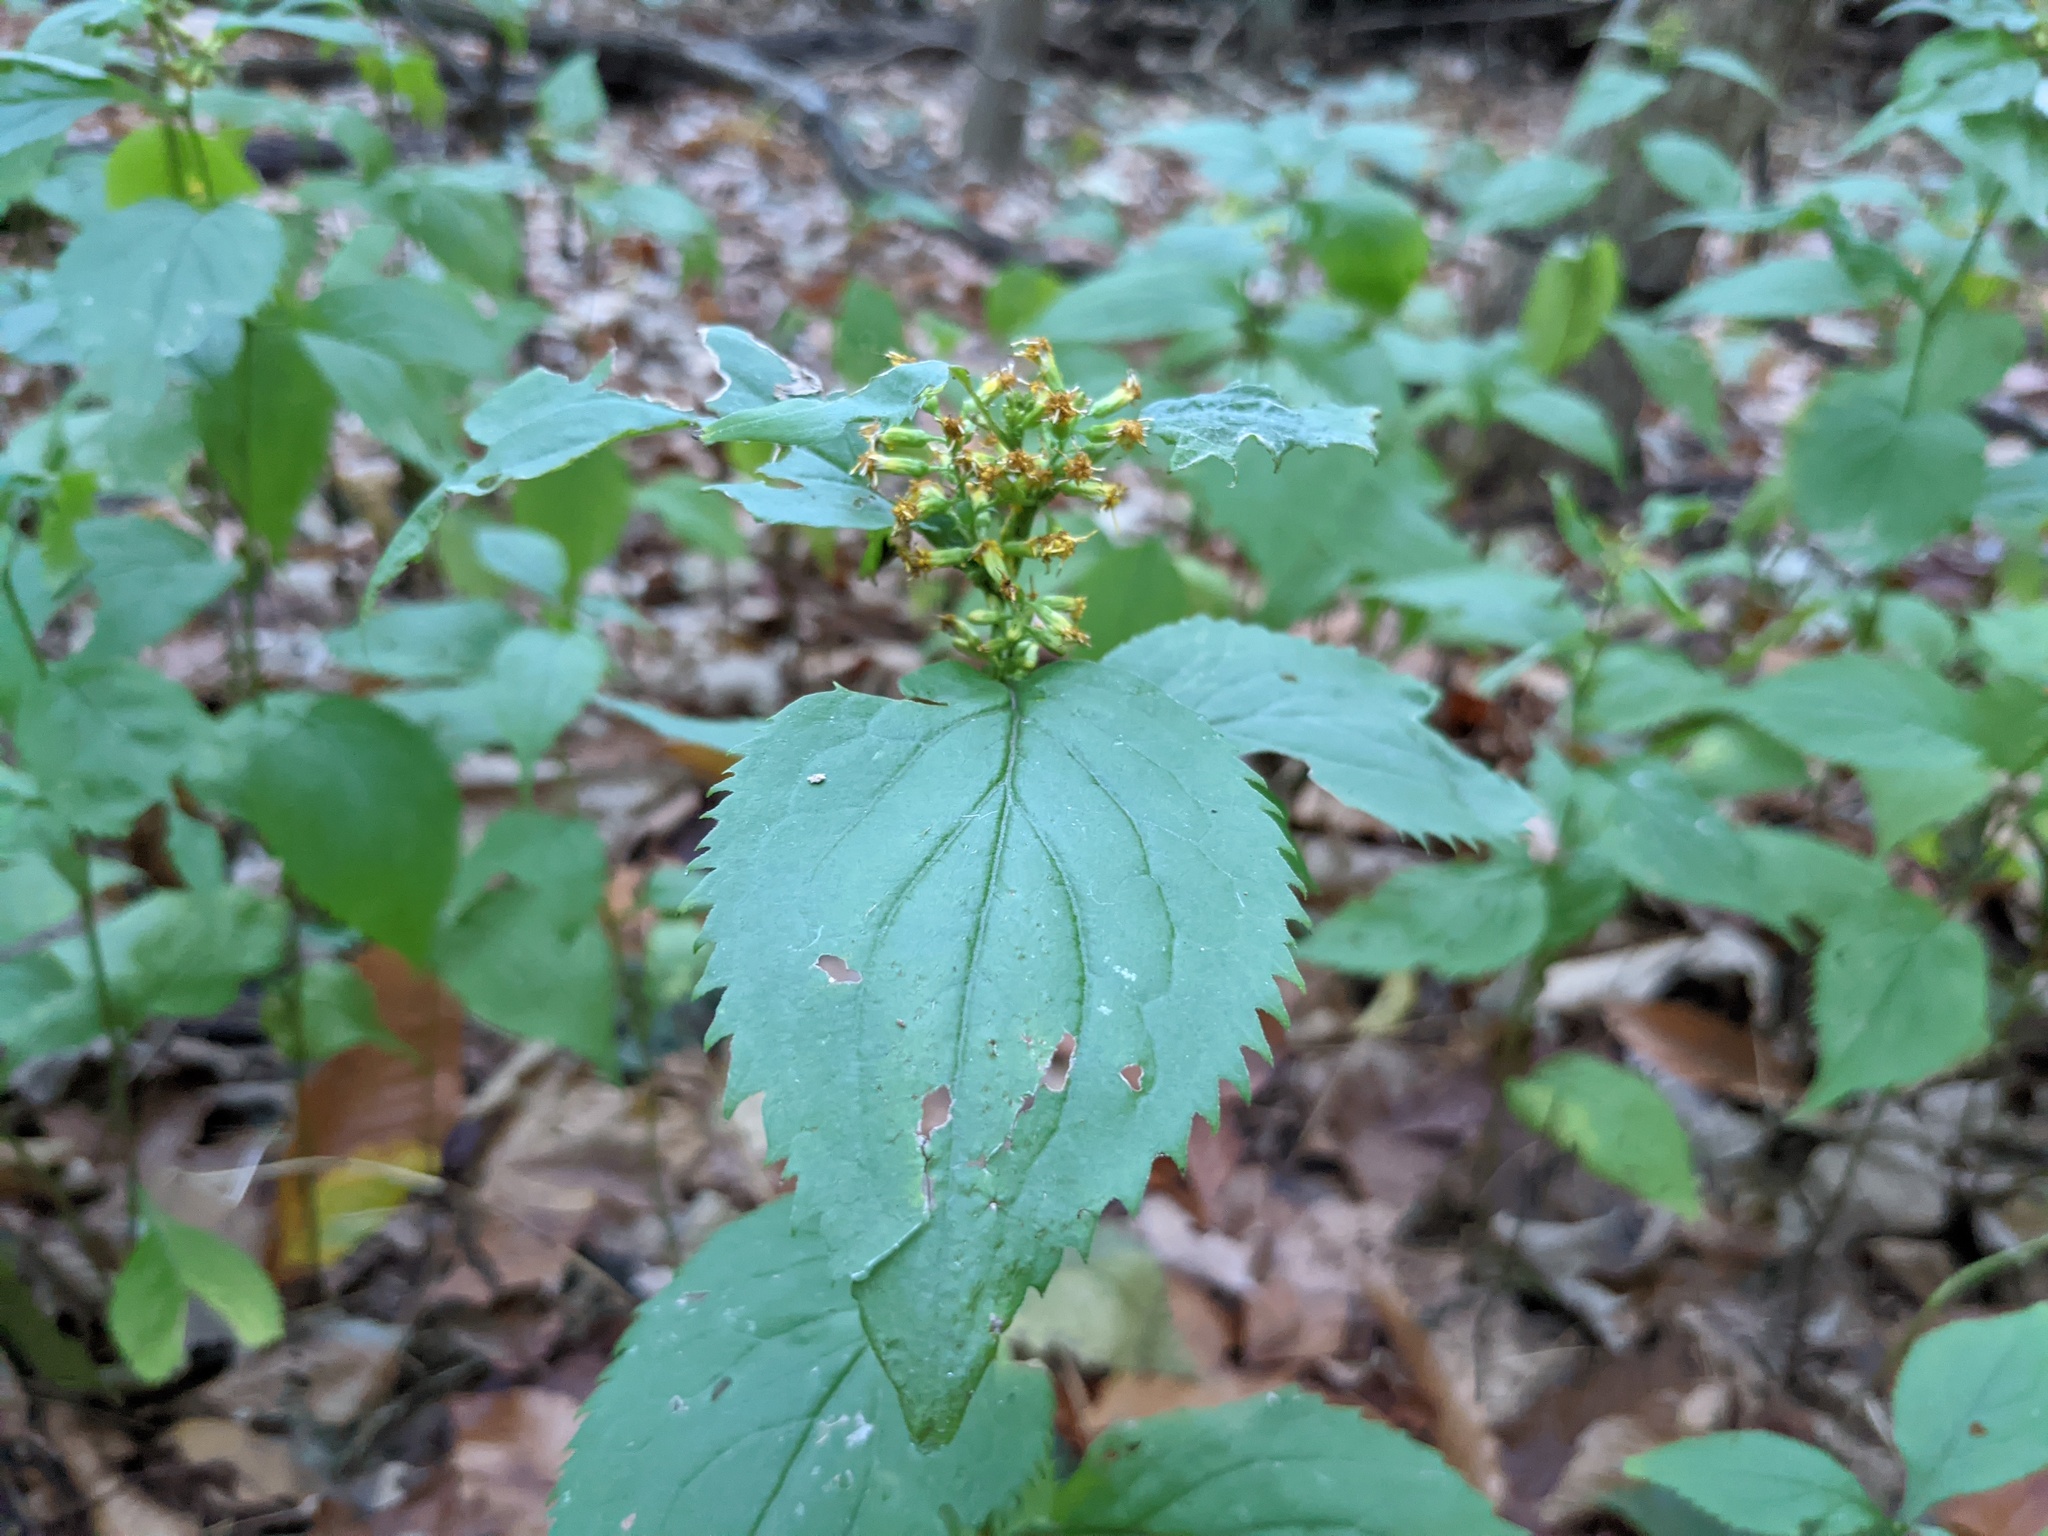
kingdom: Plantae
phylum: Tracheophyta
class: Magnoliopsida
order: Asterales
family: Asteraceae
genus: Solidago
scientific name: Solidago flexicaulis
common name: Zig-zag goldenrod
